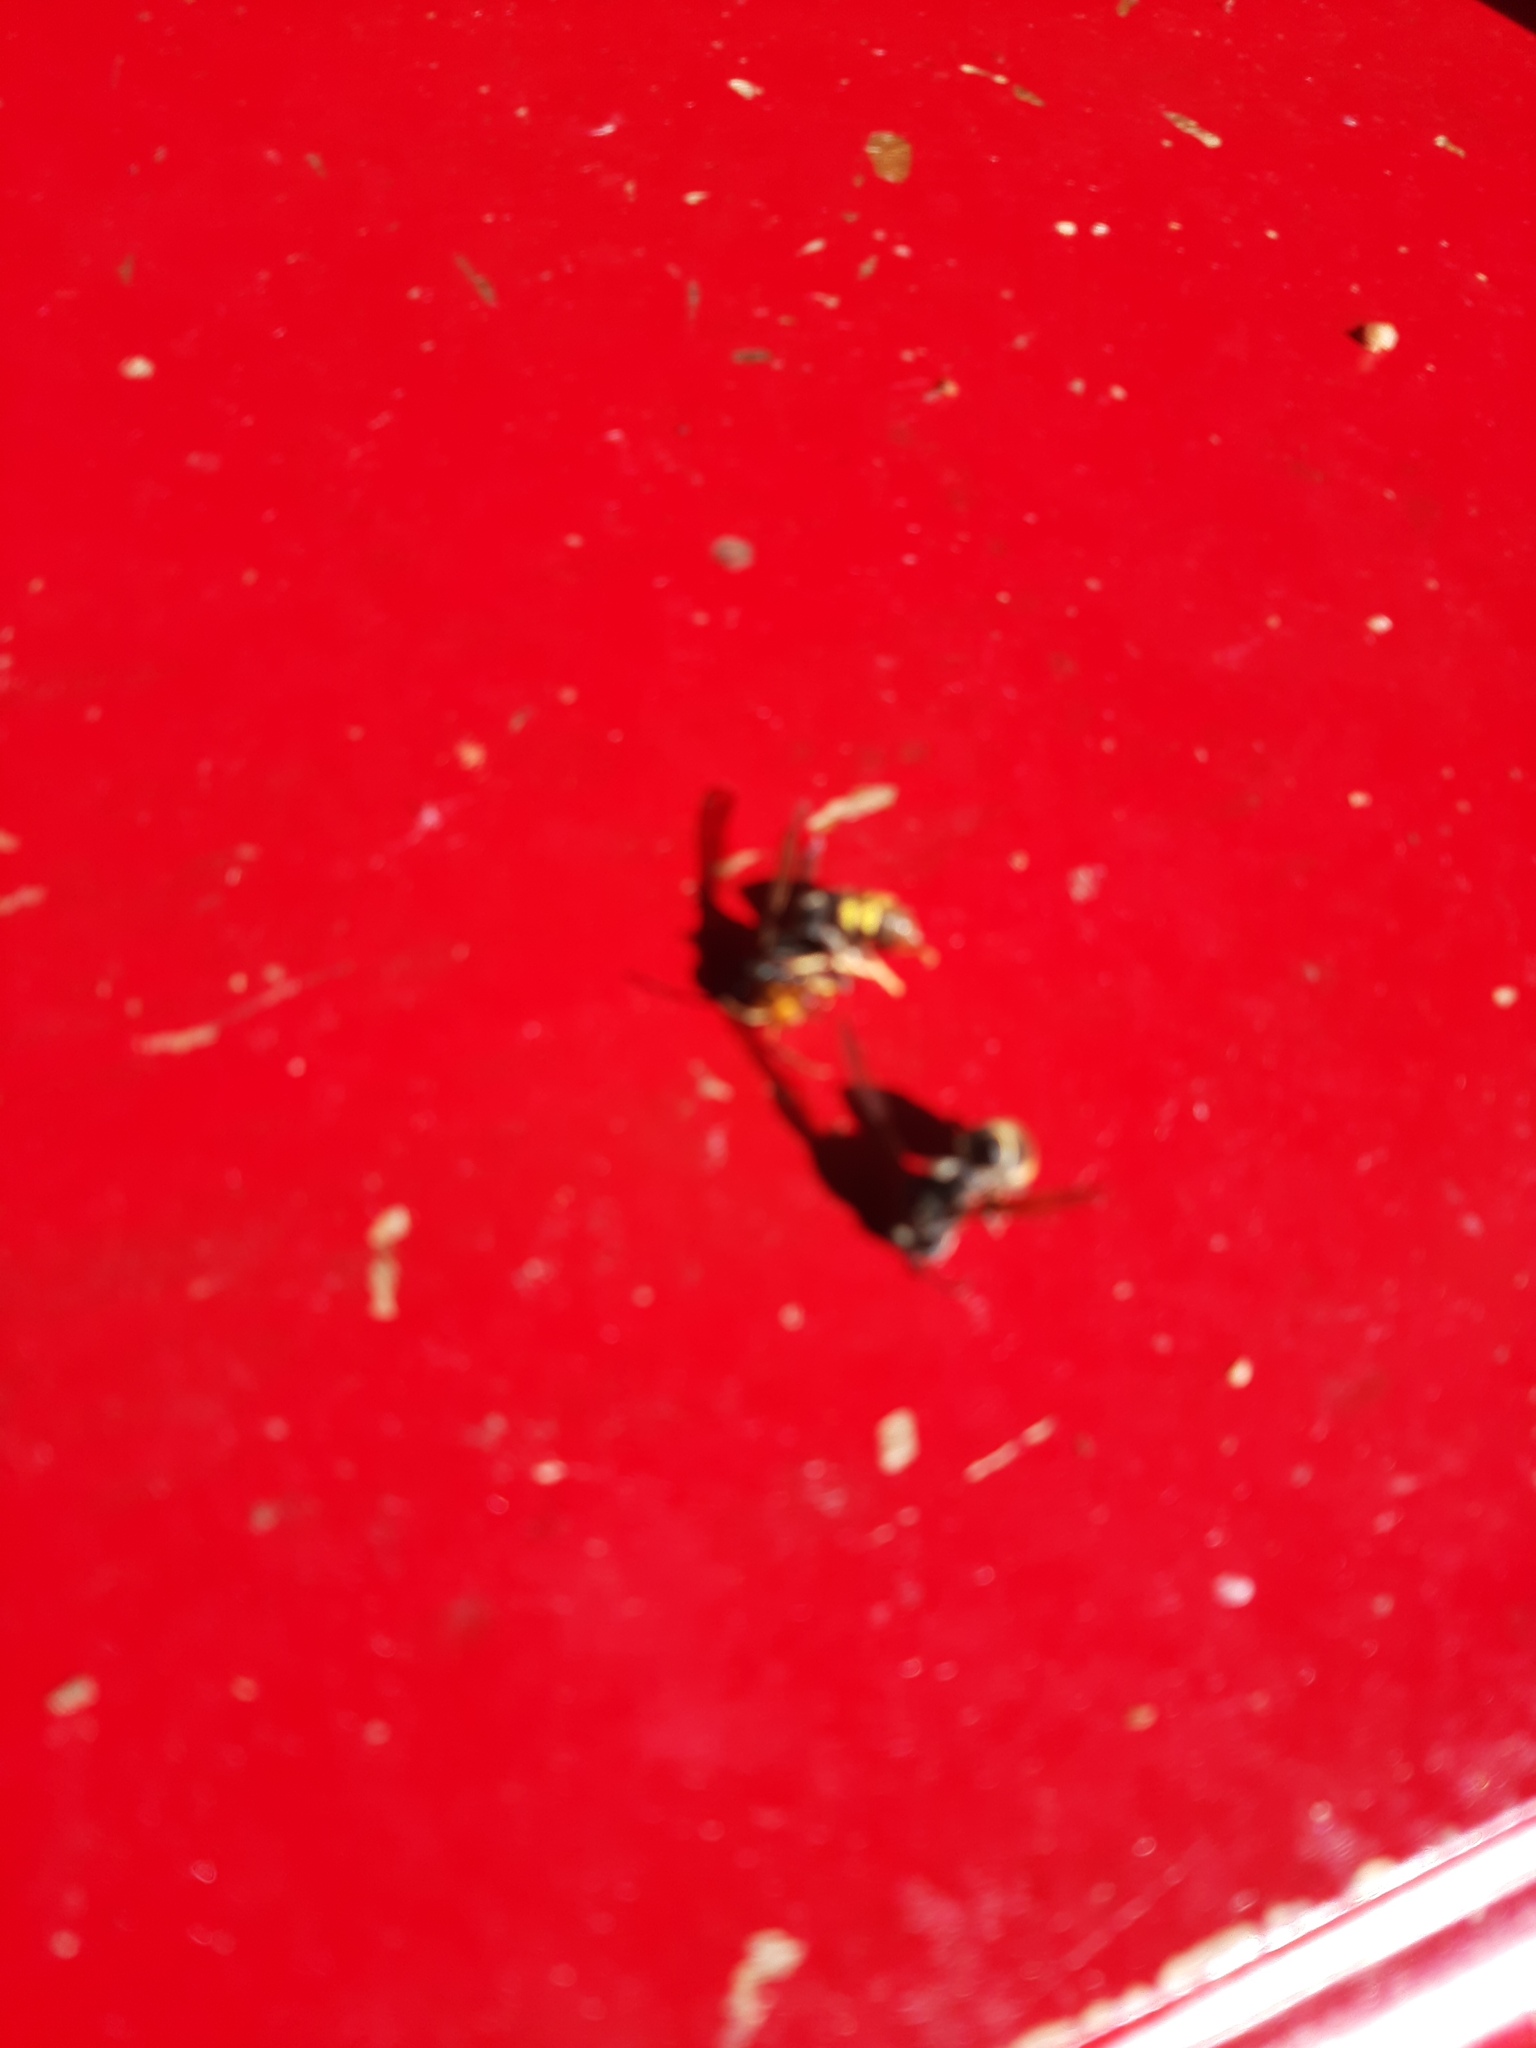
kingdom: Animalia
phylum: Arthropoda
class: Insecta
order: Hymenoptera
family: Vespidae
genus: Vespa
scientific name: Vespa velutina
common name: Asian hornet
